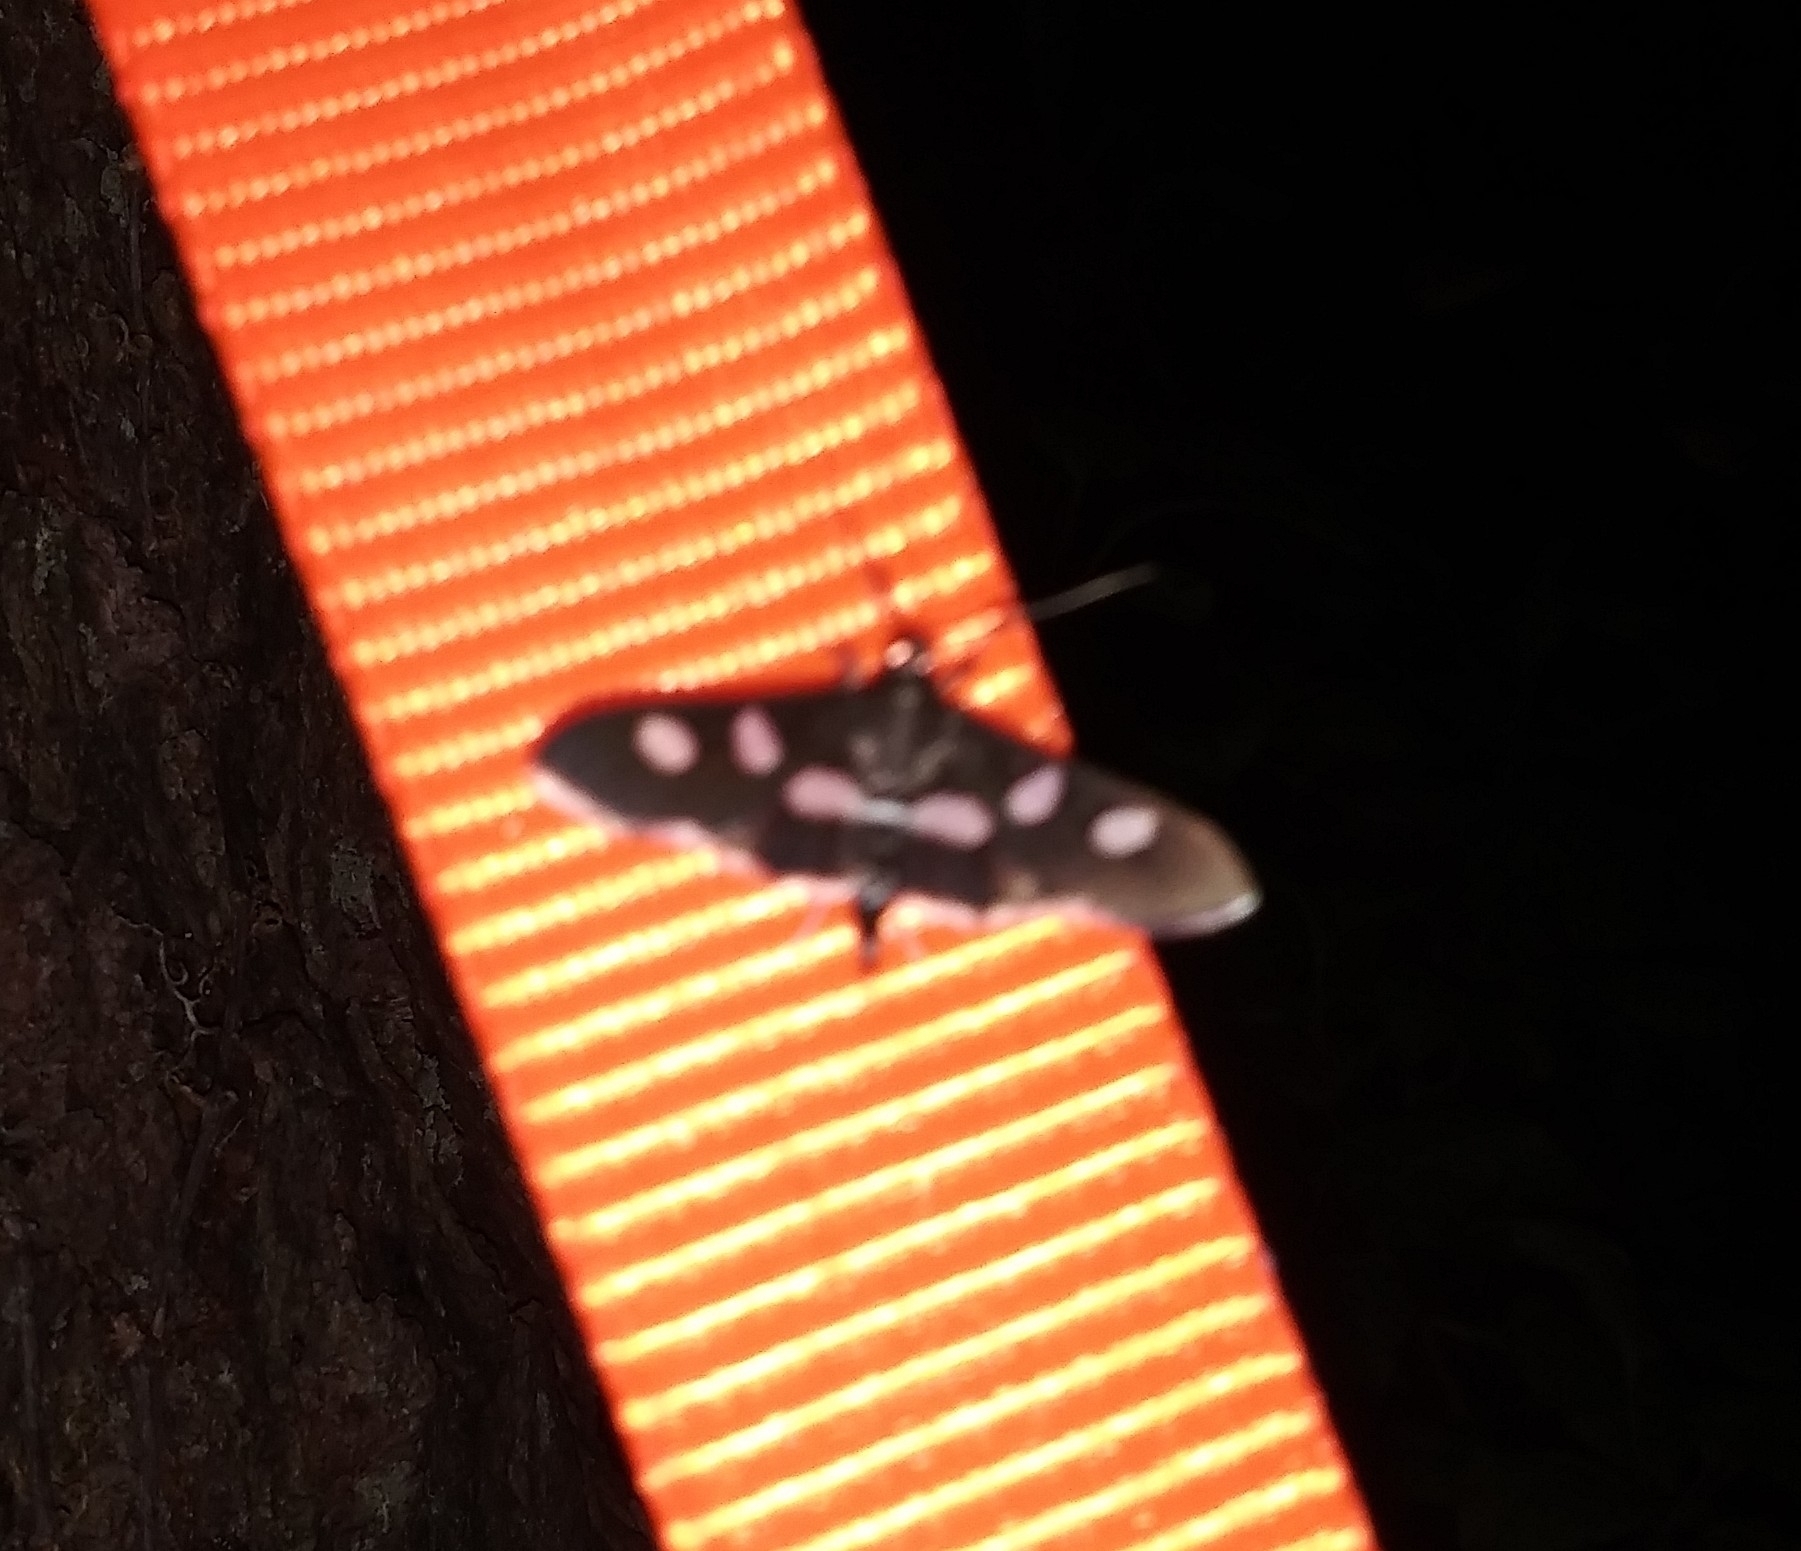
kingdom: Animalia
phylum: Arthropoda
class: Insecta
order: Lepidoptera
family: Crambidae
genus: Desmia
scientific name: Desmia
